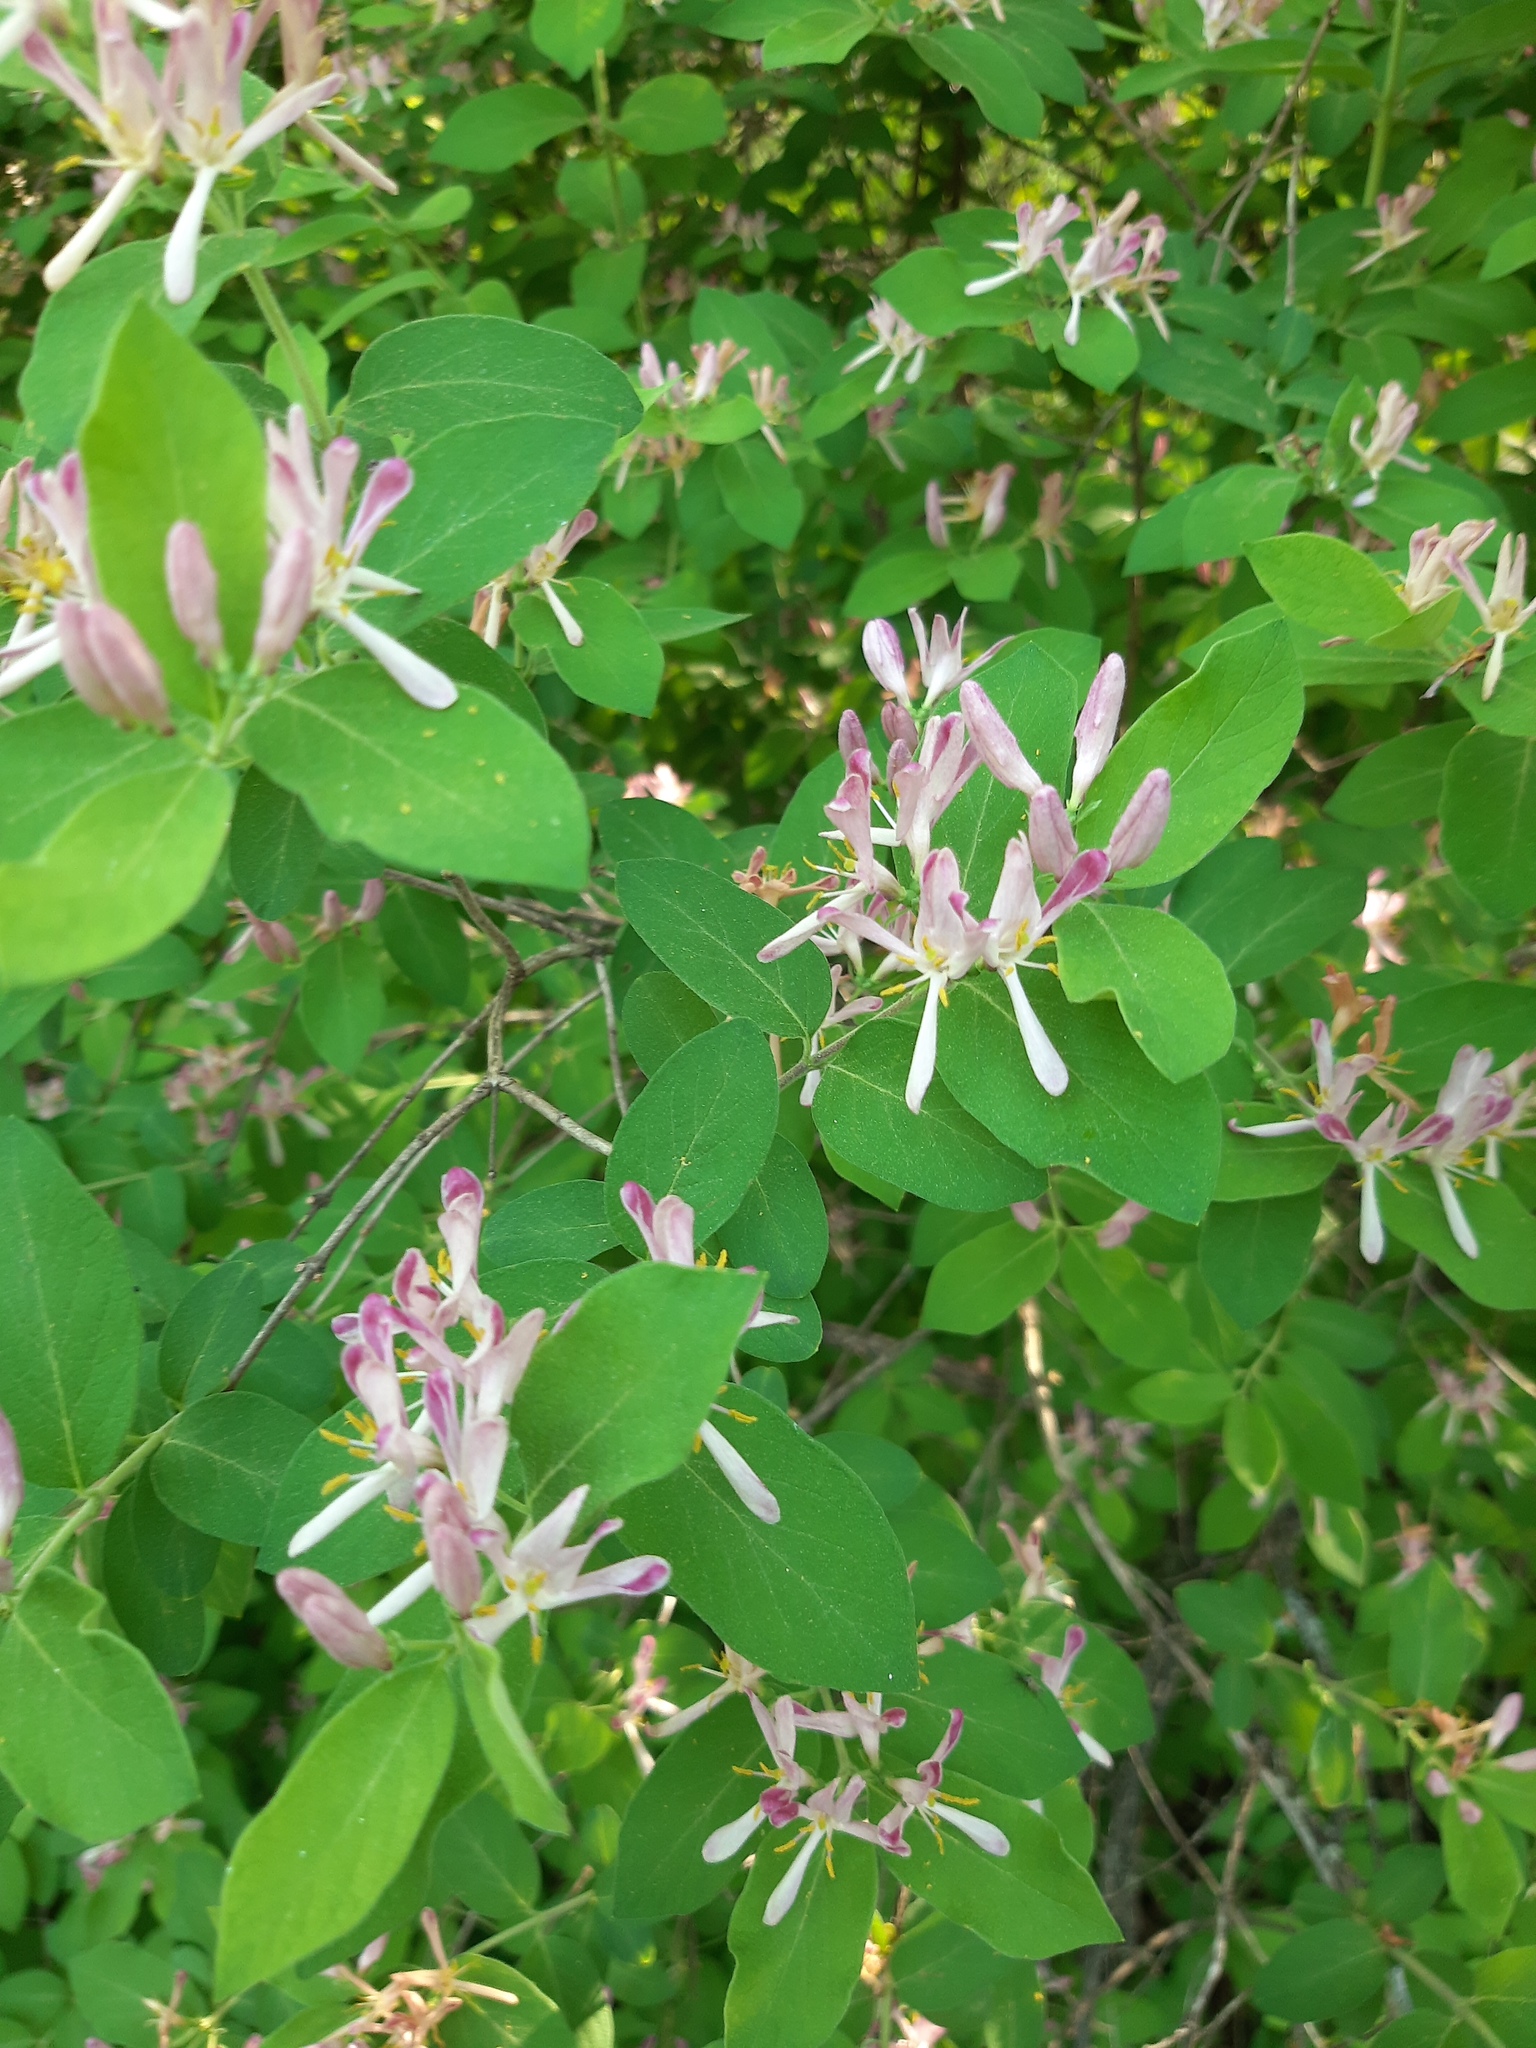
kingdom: Plantae
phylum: Tracheophyta
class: Magnoliopsida
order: Dipsacales
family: Caprifoliaceae
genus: Lonicera
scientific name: Lonicera bella
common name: Bell's honeysuckle
